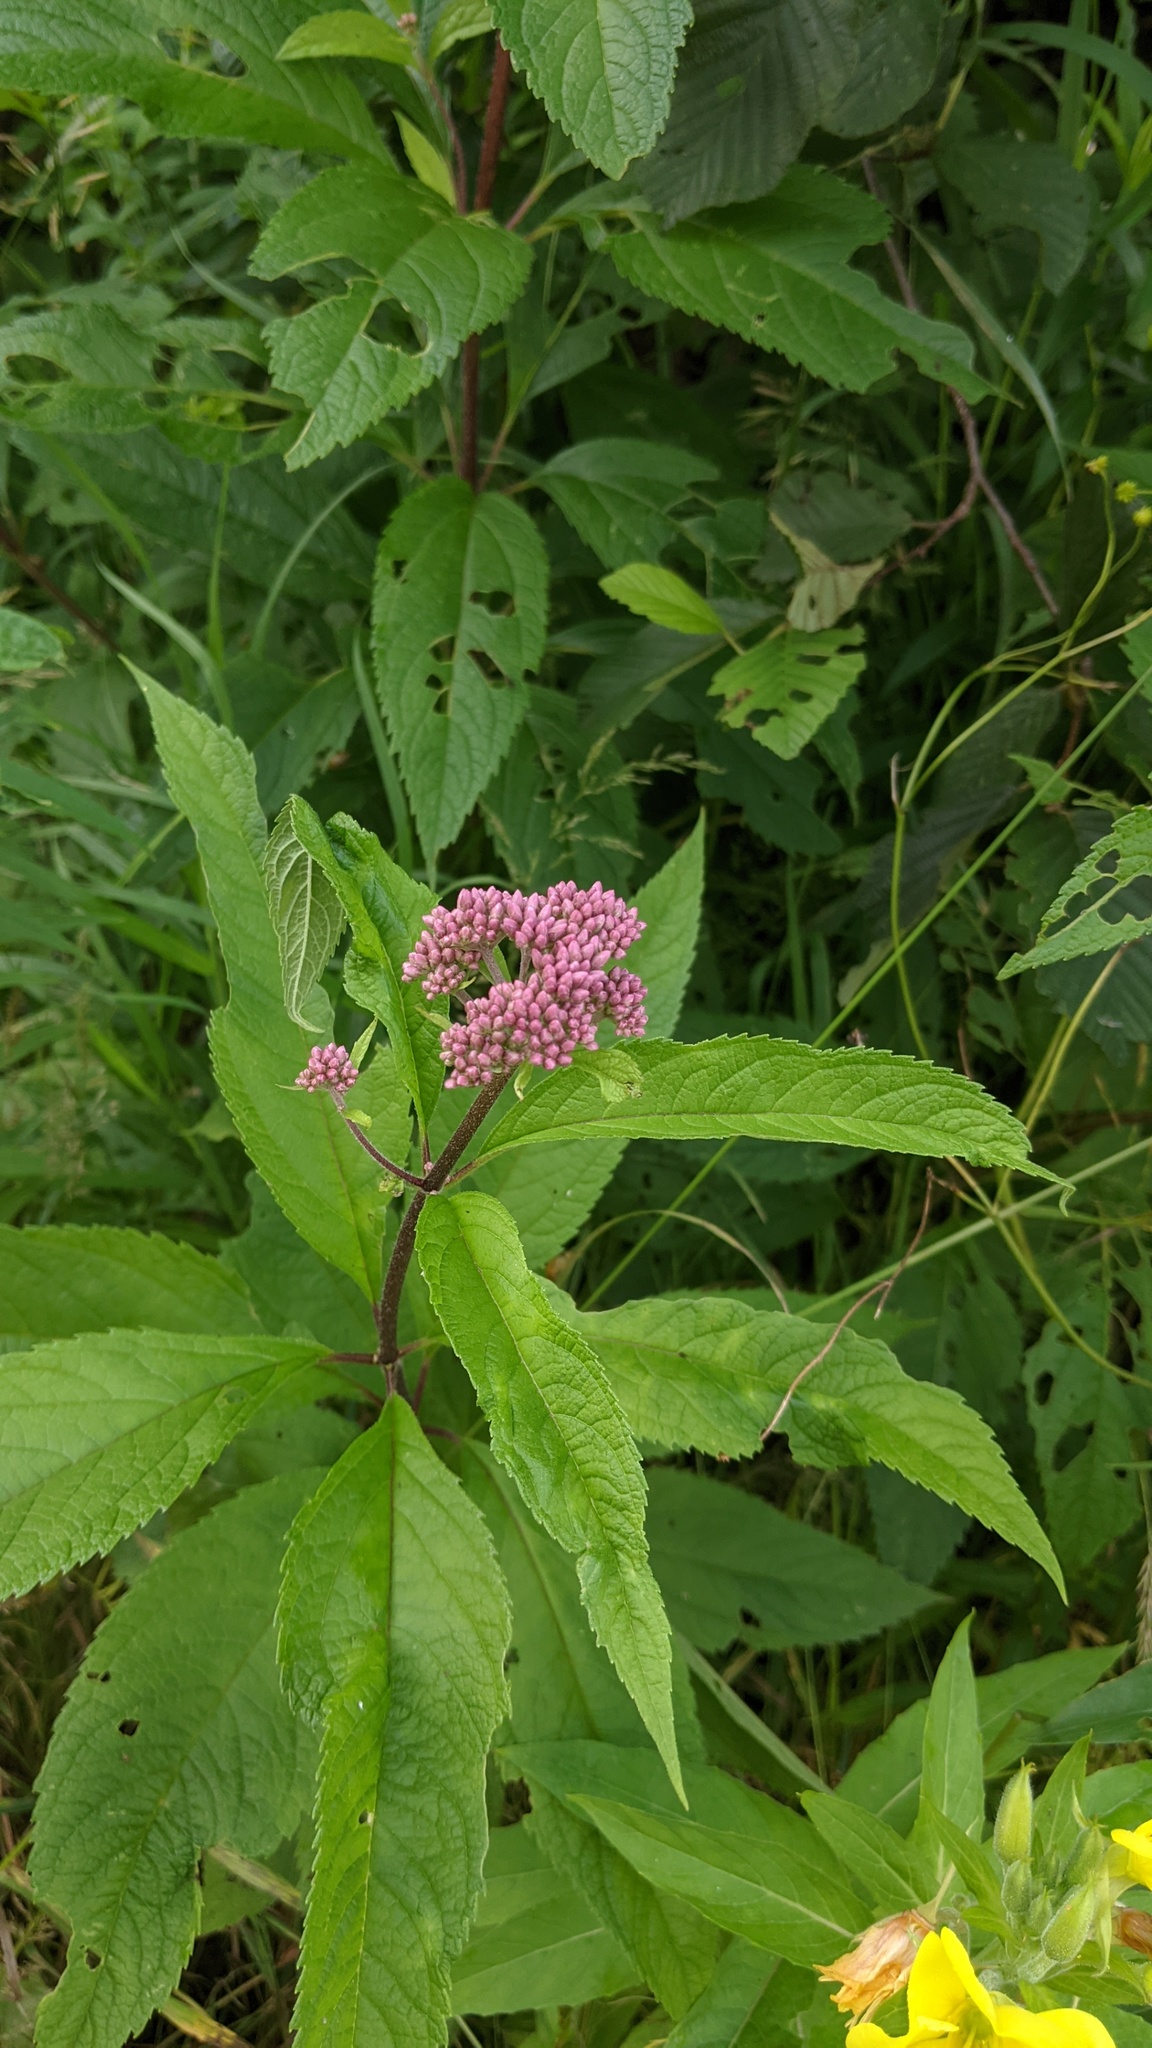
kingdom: Plantae
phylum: Tracheophyta
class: Magnoliopsida
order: Asterales
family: Asteraceae
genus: Eutrochium
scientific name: Eutrochium maculatum
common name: Spotted joe pye weed
